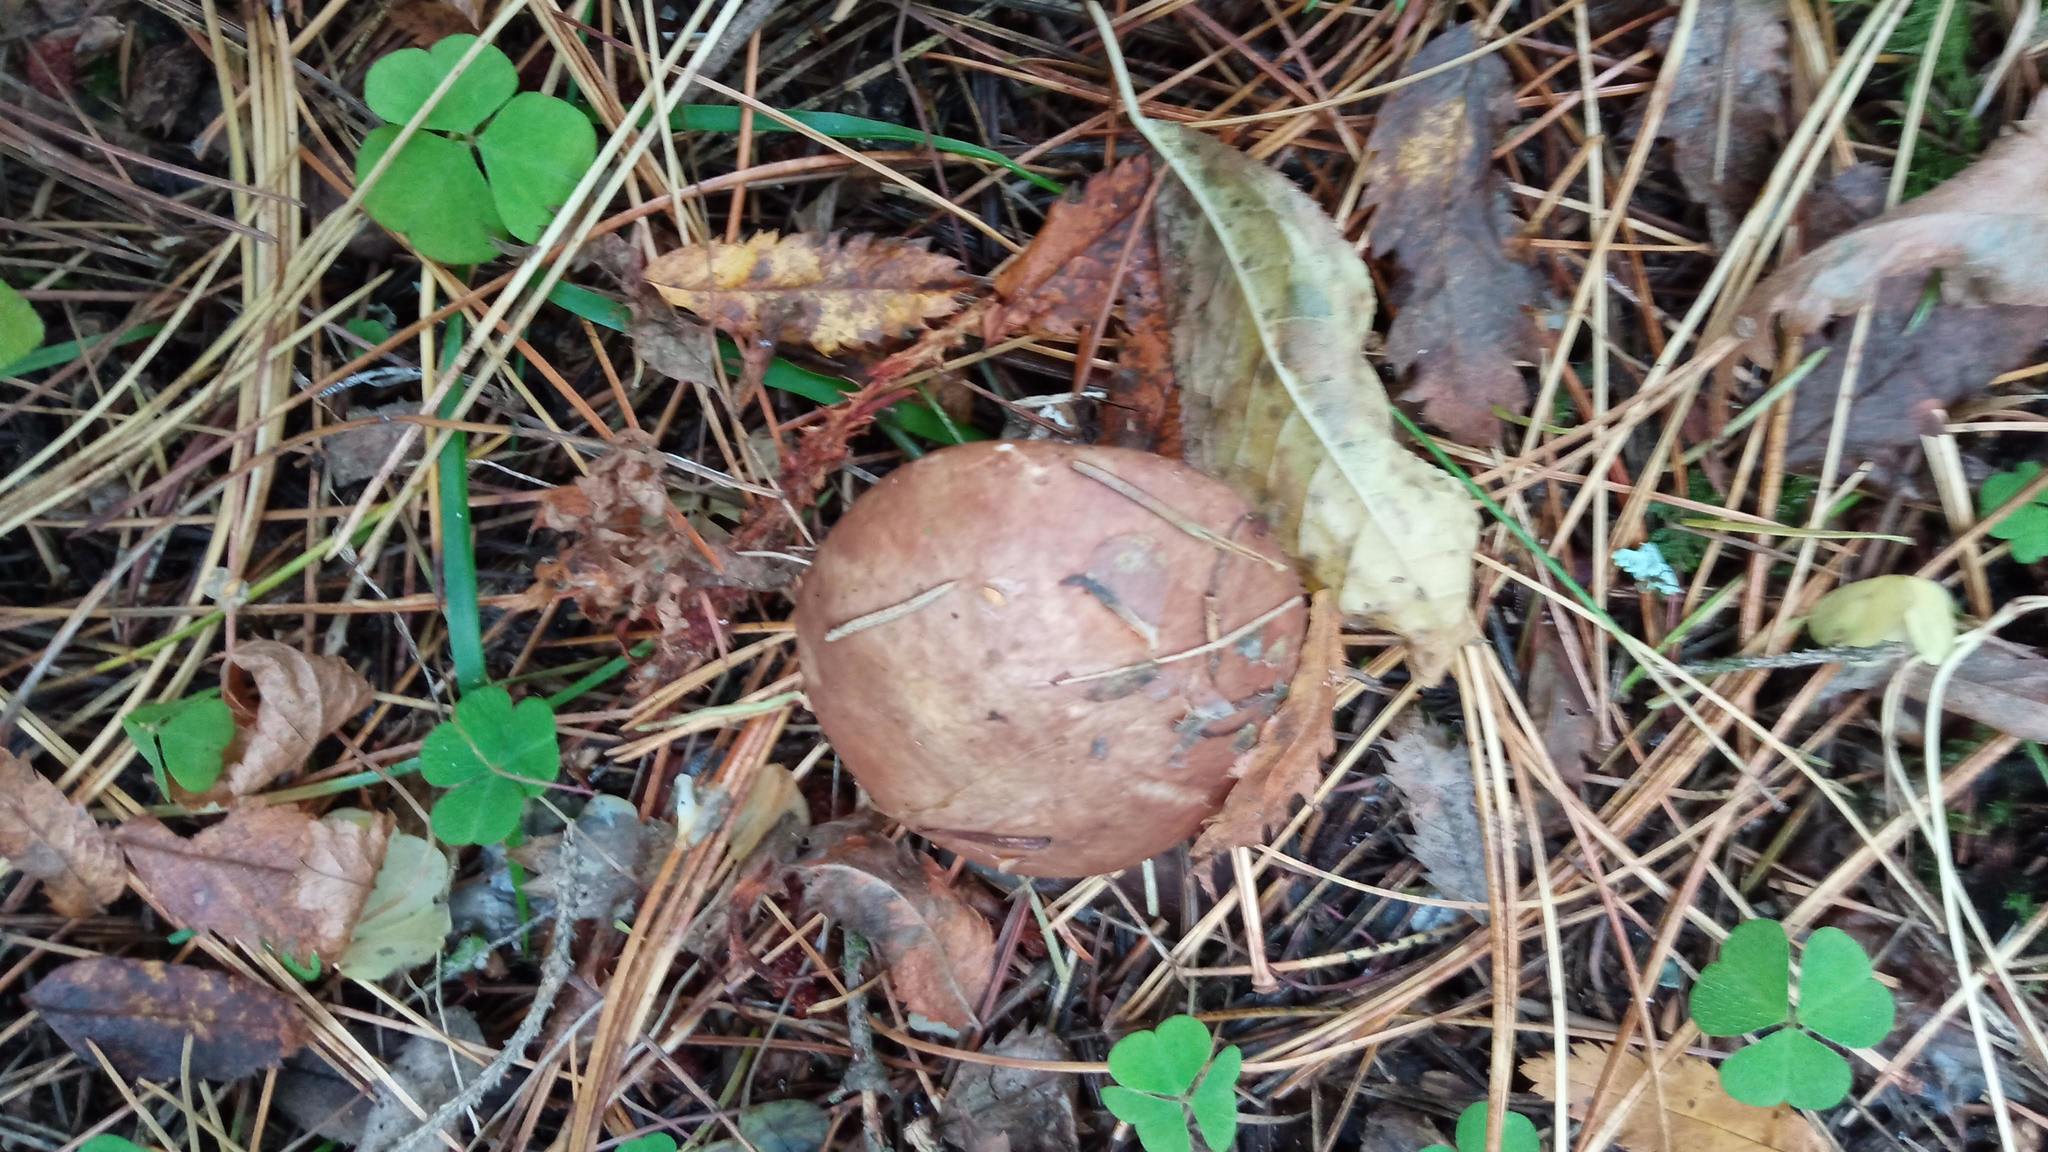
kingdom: Fungi
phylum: Basidiomycota
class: Agaricomycetes
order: Boletales
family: Suillaceae
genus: Suillus
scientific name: Suillus luteus
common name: Slippery jack
